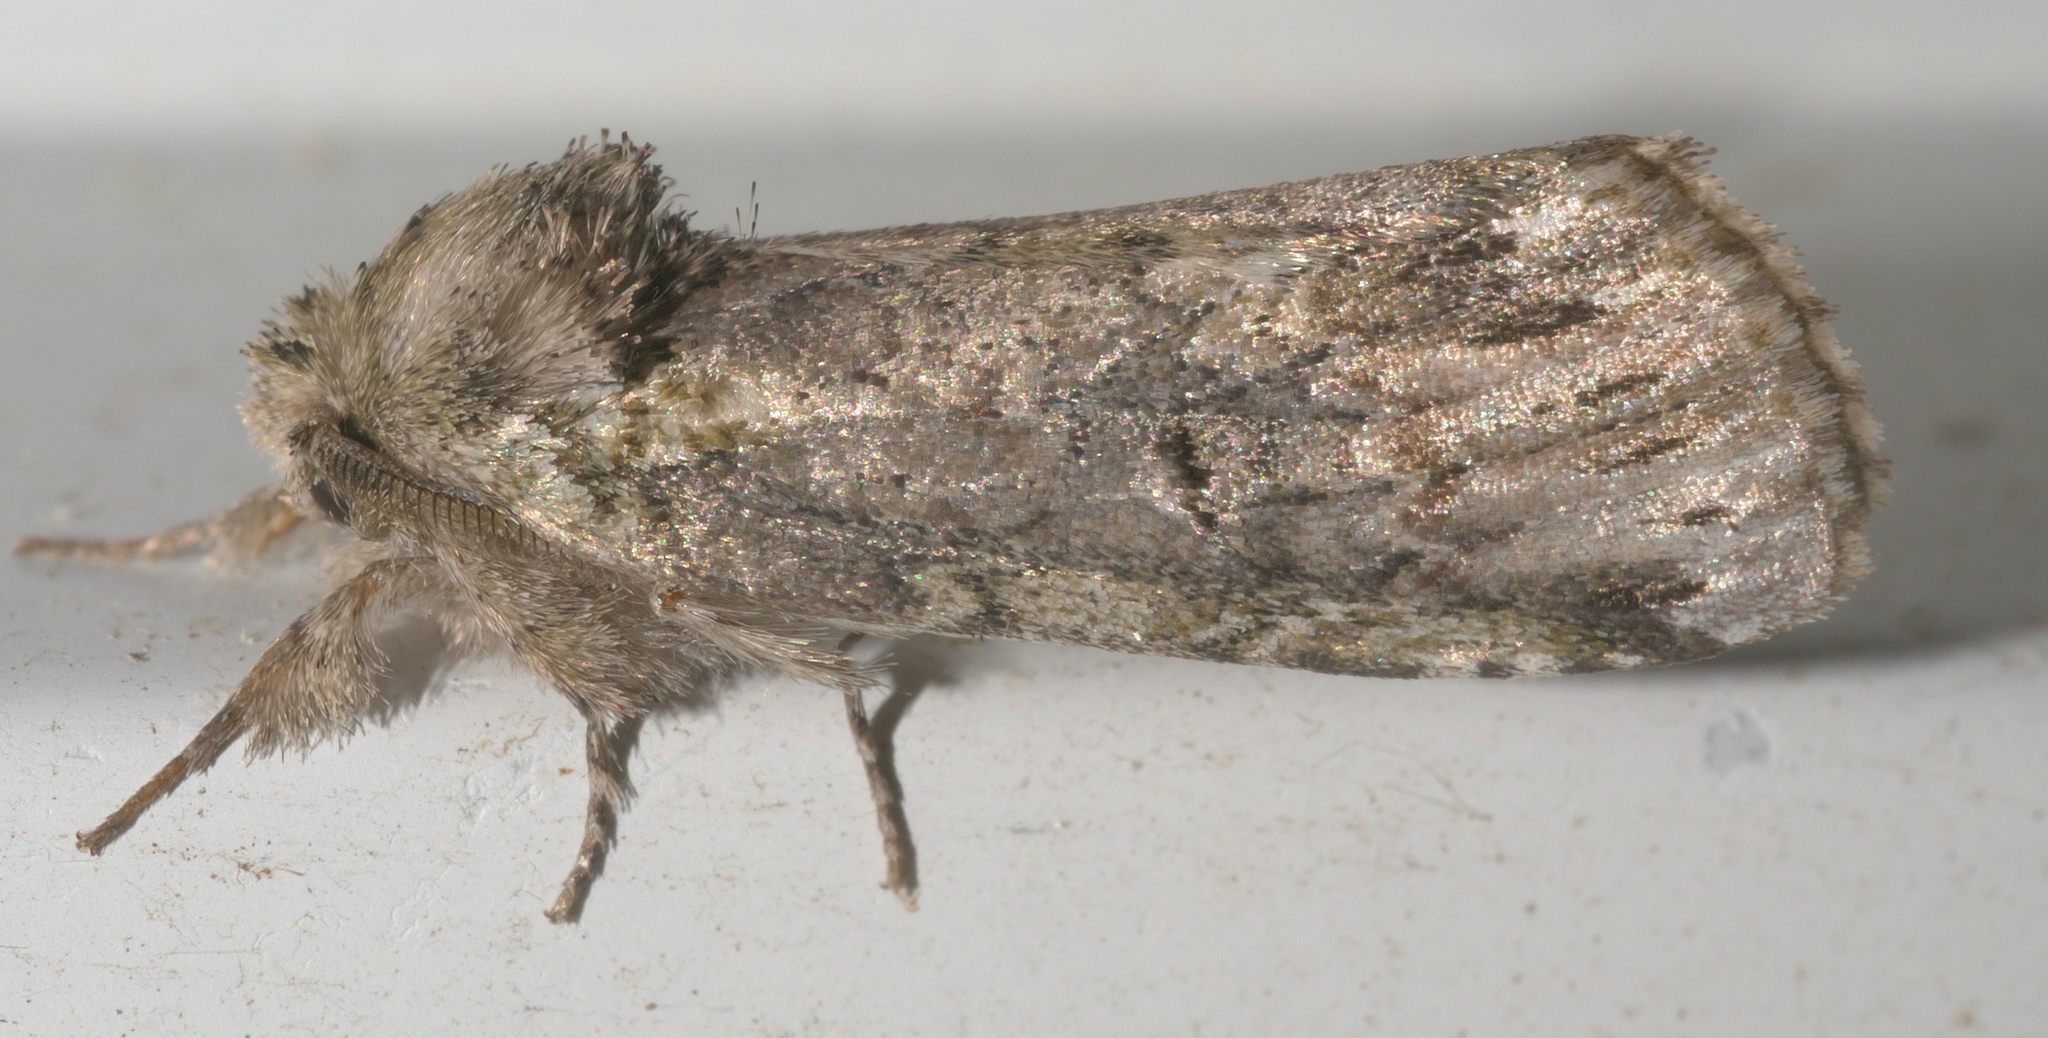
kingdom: Animalia
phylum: Arthropoda
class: Insecta
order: Lepidoptera
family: Notodontidae
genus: Schizura
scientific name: Schizura
